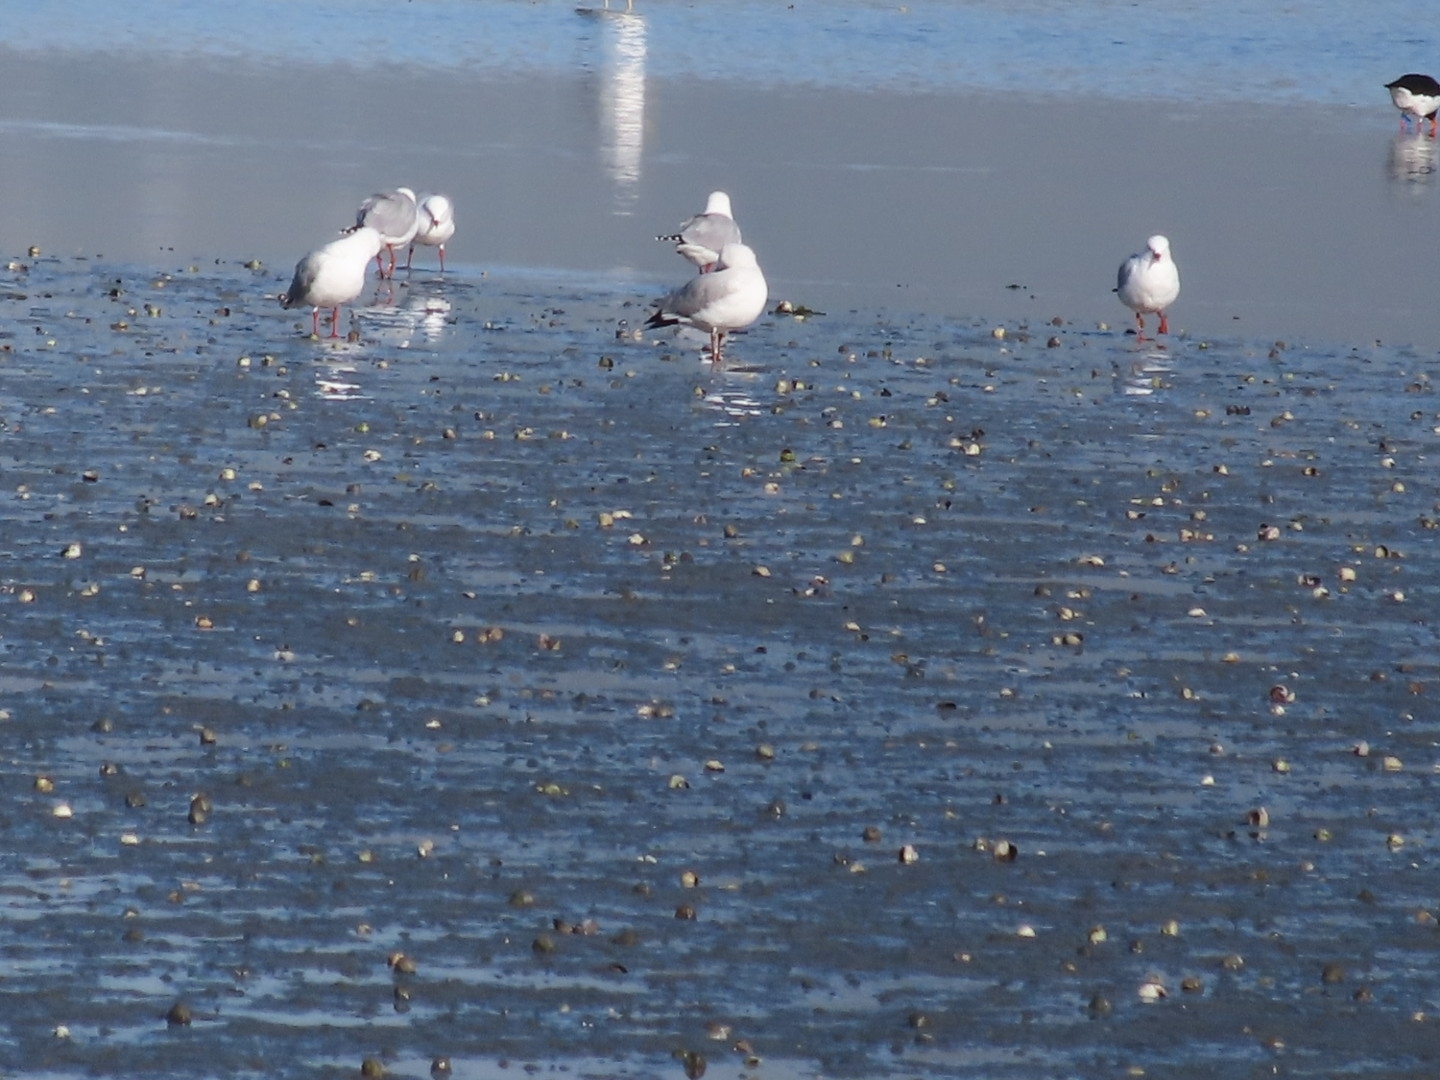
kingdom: Animalia
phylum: Chordata
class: Aves
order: Charadriiformes
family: Laridae
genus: Chroicocephalus
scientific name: Chroicocephalus novaehollandiae
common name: Silver gull
